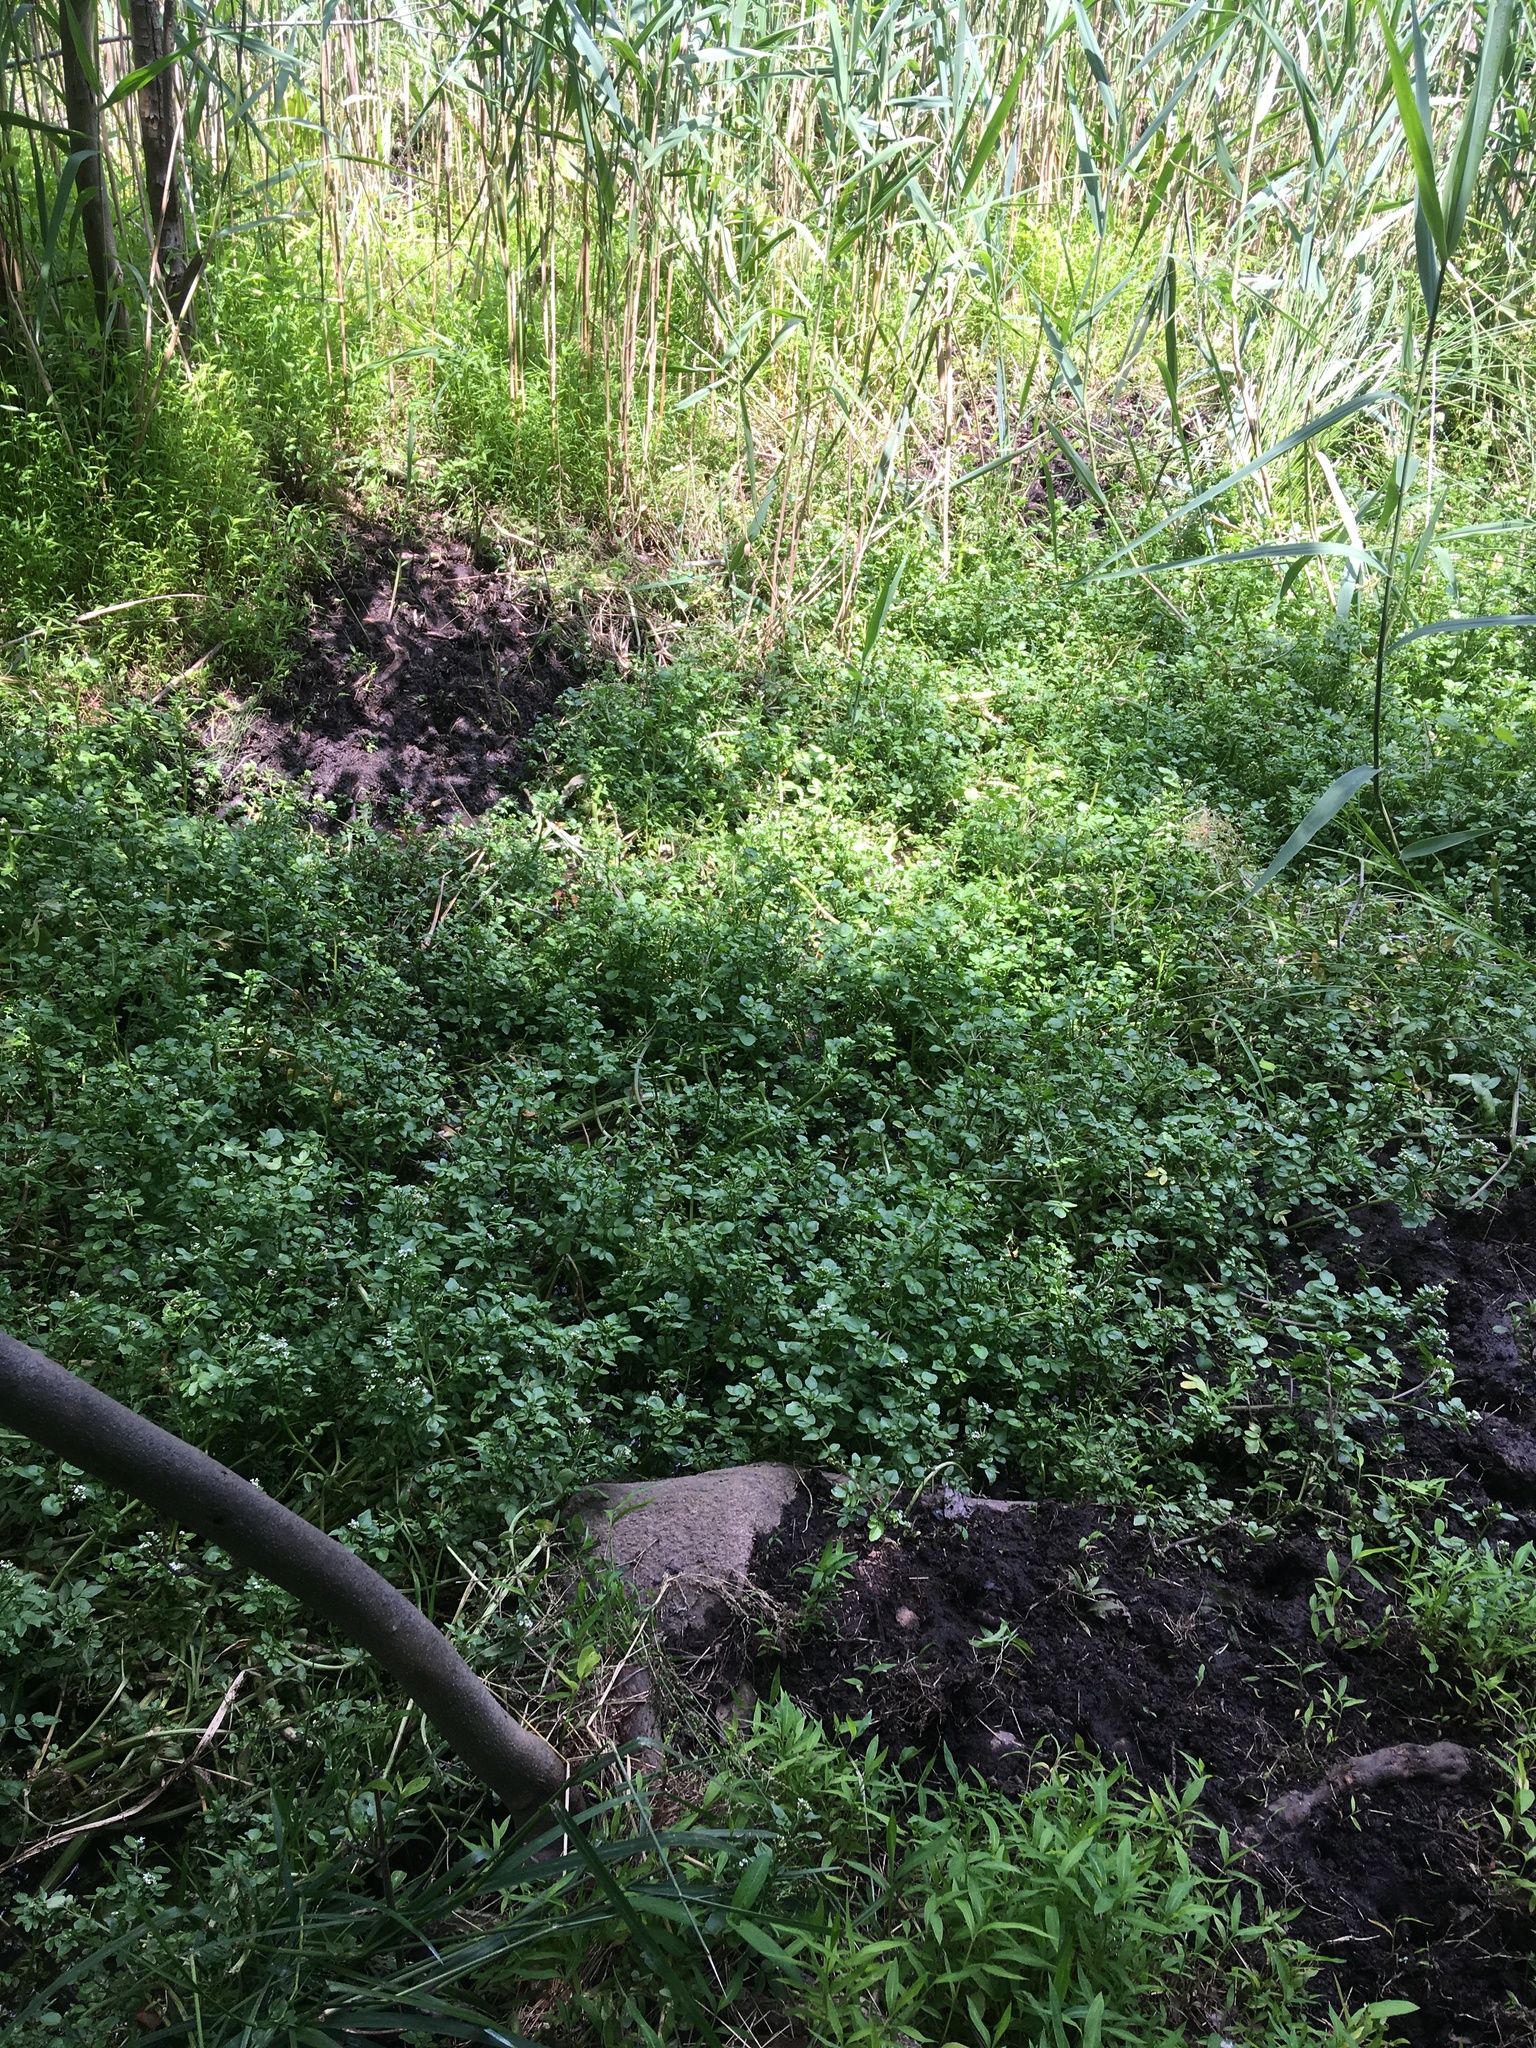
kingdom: Plantae
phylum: Tracheophyta
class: Magnoliopsida
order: Brassicales
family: Brassicaceae
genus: Nasturtium
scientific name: Nasturtium officinale
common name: Watercress
